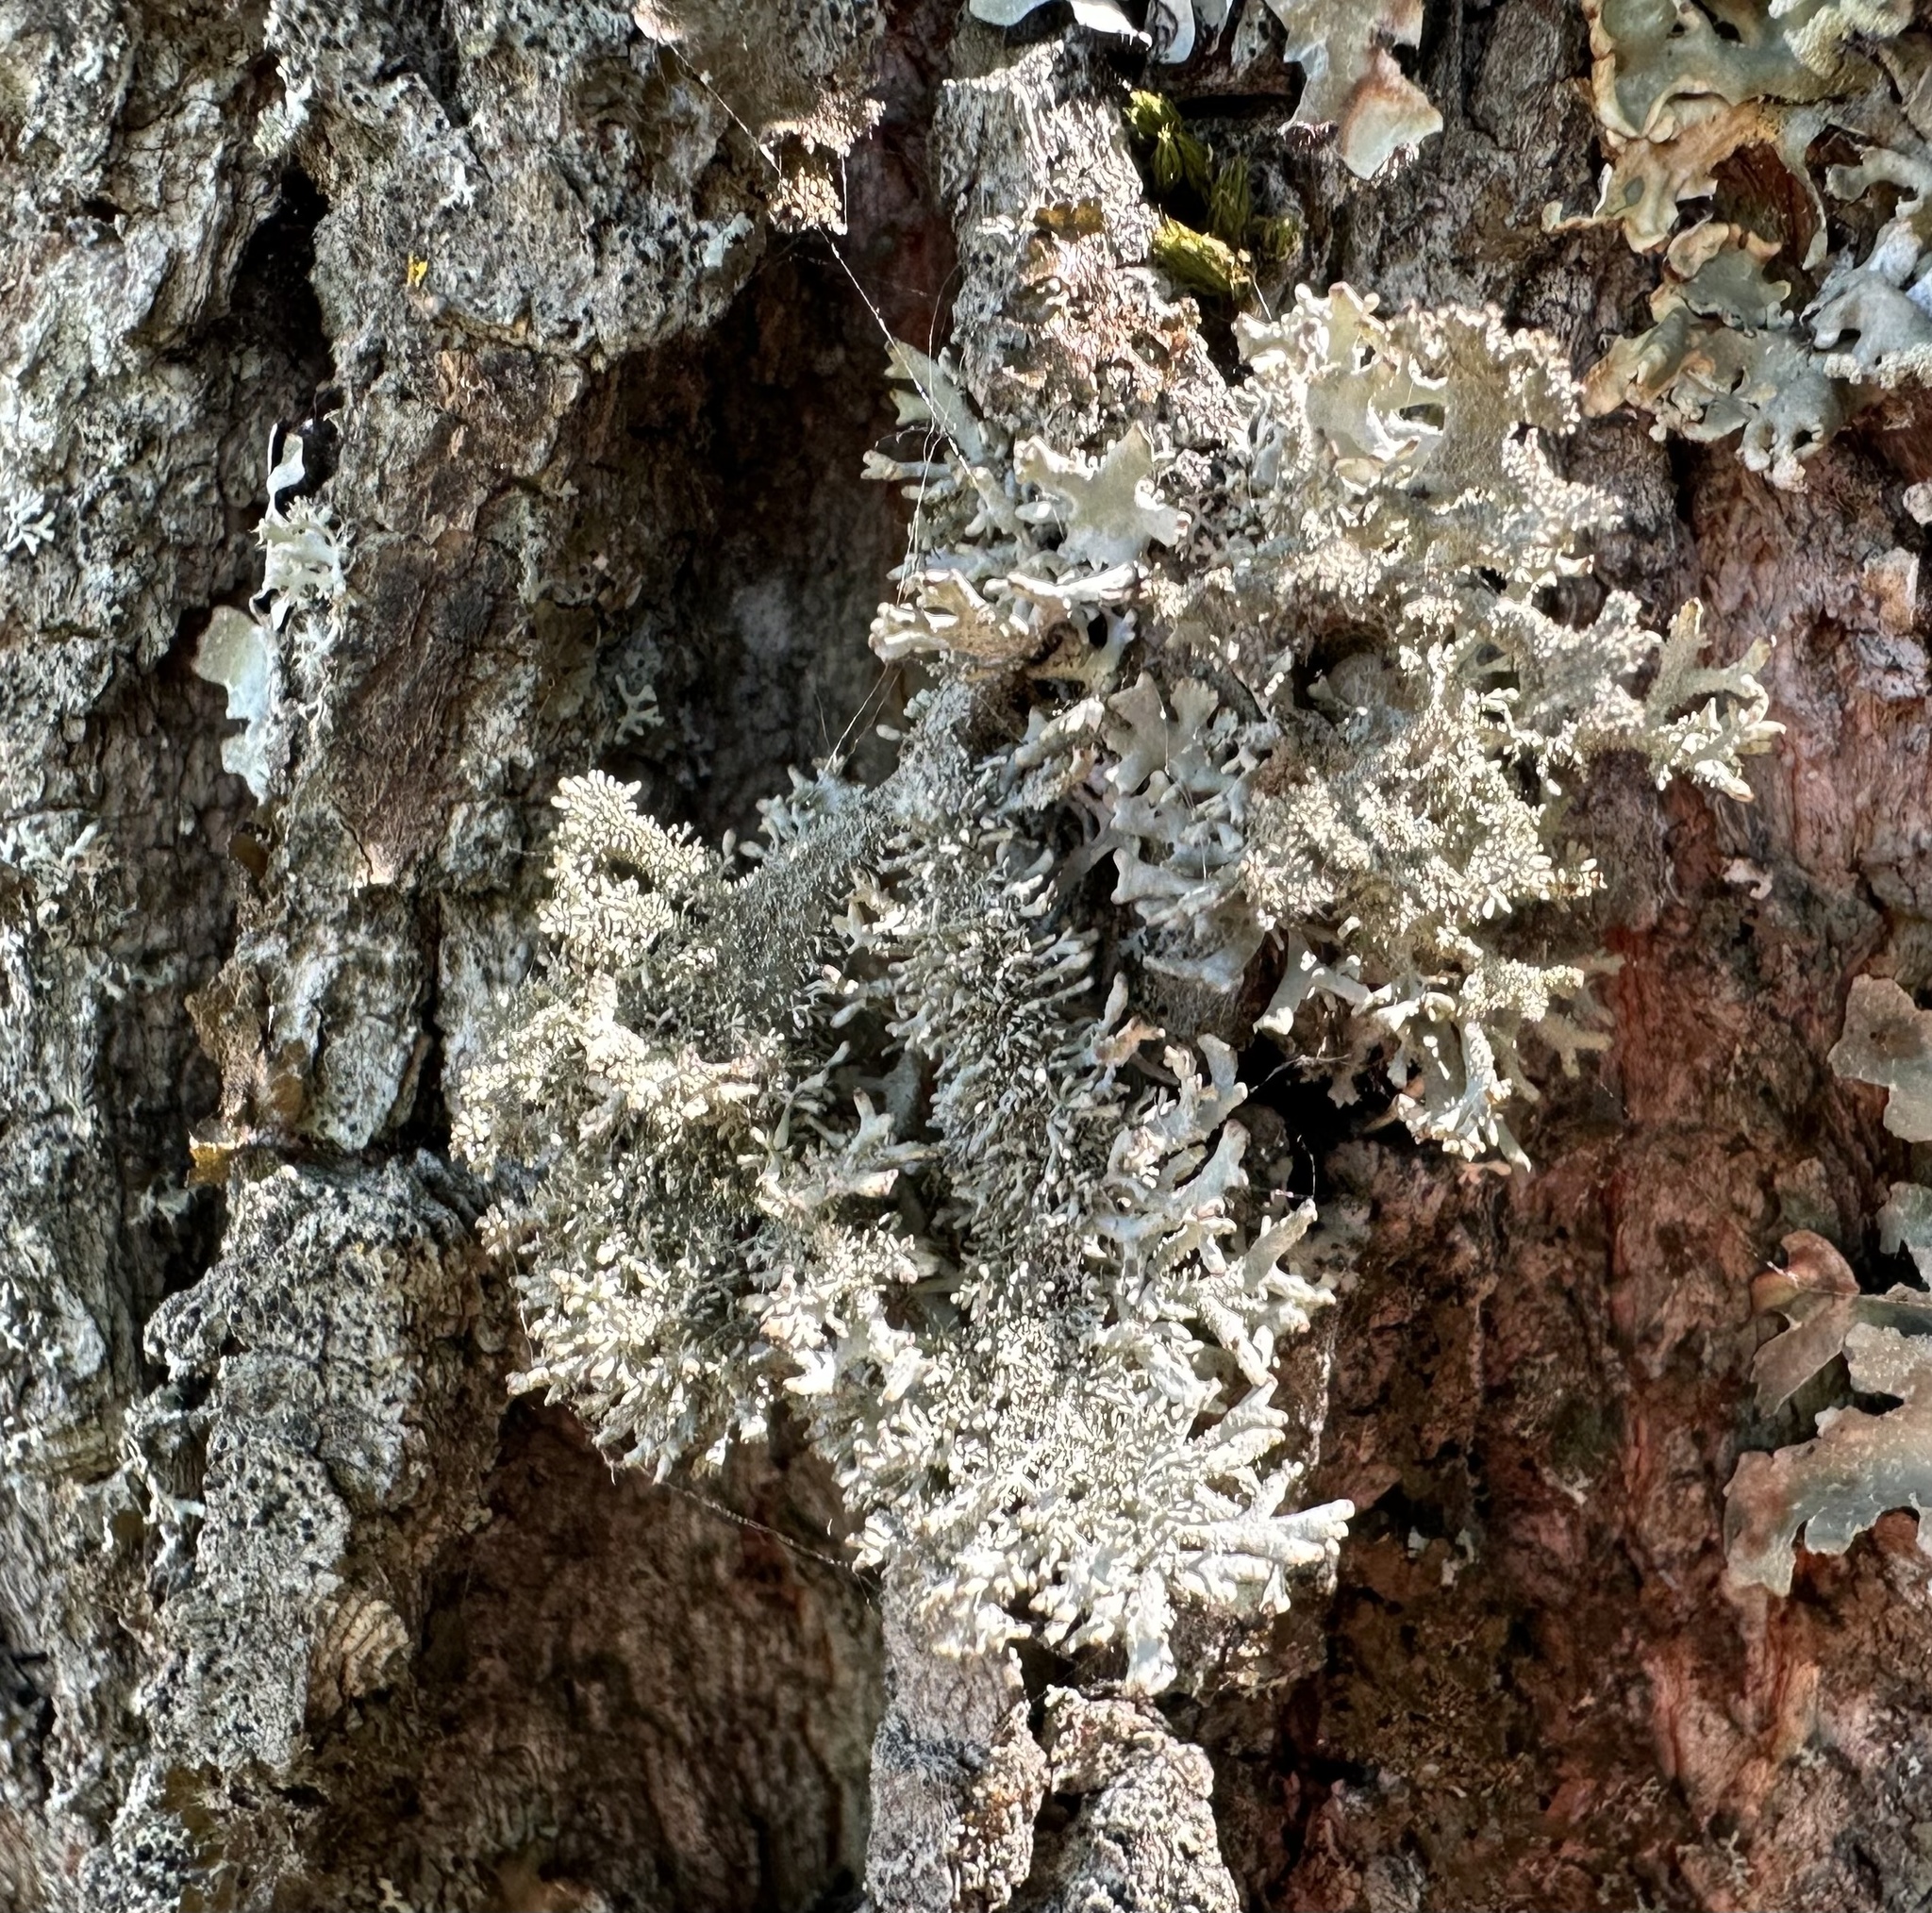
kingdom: Fungi
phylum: Ascomycota
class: Lecanoromycetes
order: Lecanorales
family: Parmeliaceae
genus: Pseudevernia
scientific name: Pseudevernia furfuracea
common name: Tree moss
